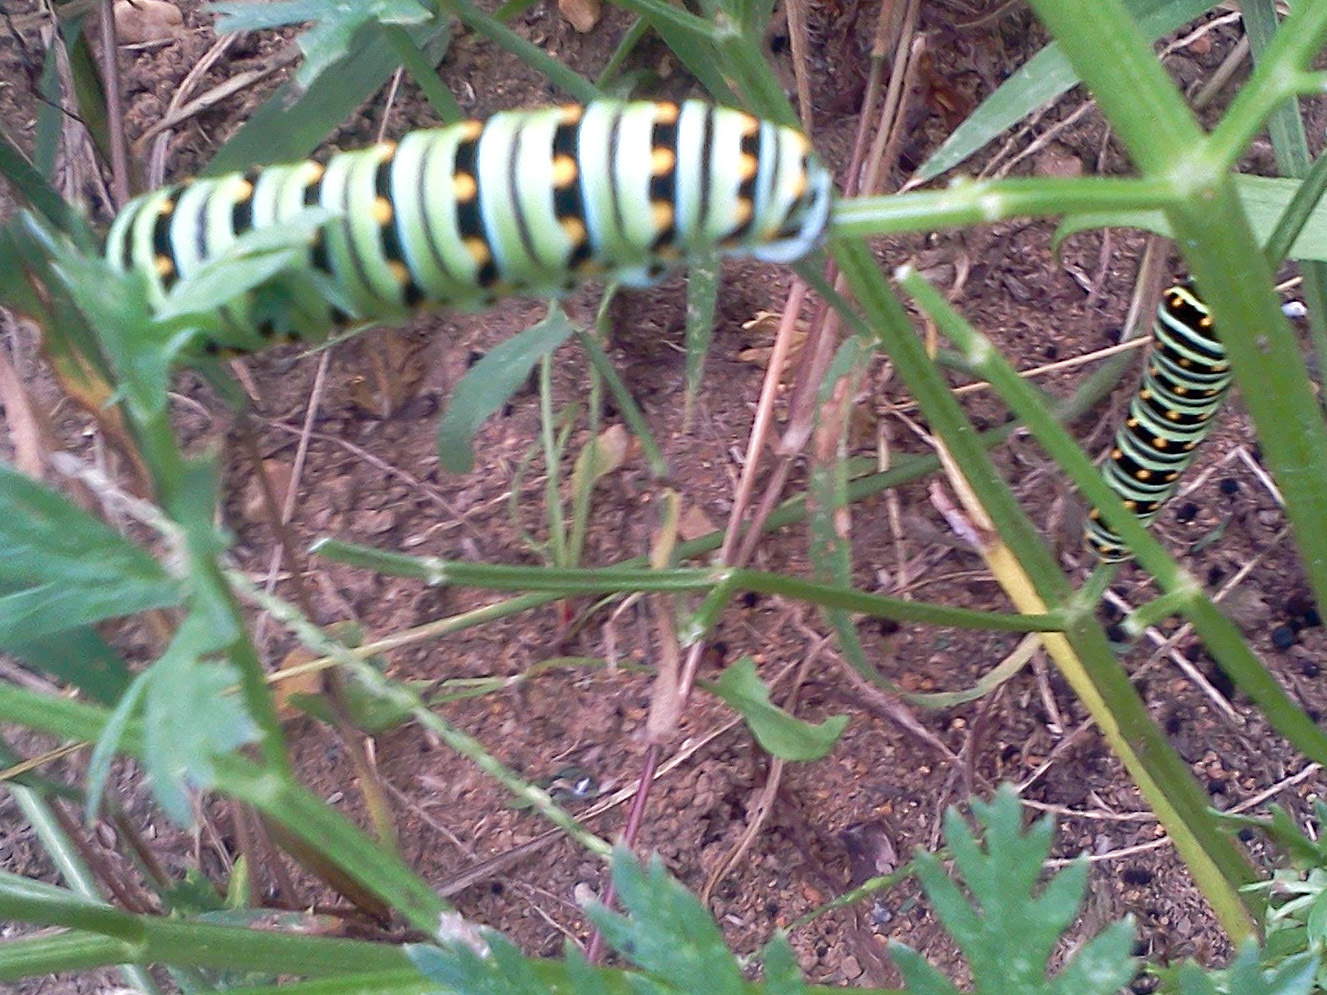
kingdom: Animalia
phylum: Arthropoda
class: Insecta
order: Lepidoptera
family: Papilionidae
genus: Papilio
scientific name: Papilio polyxenes
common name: Black swallowtail
